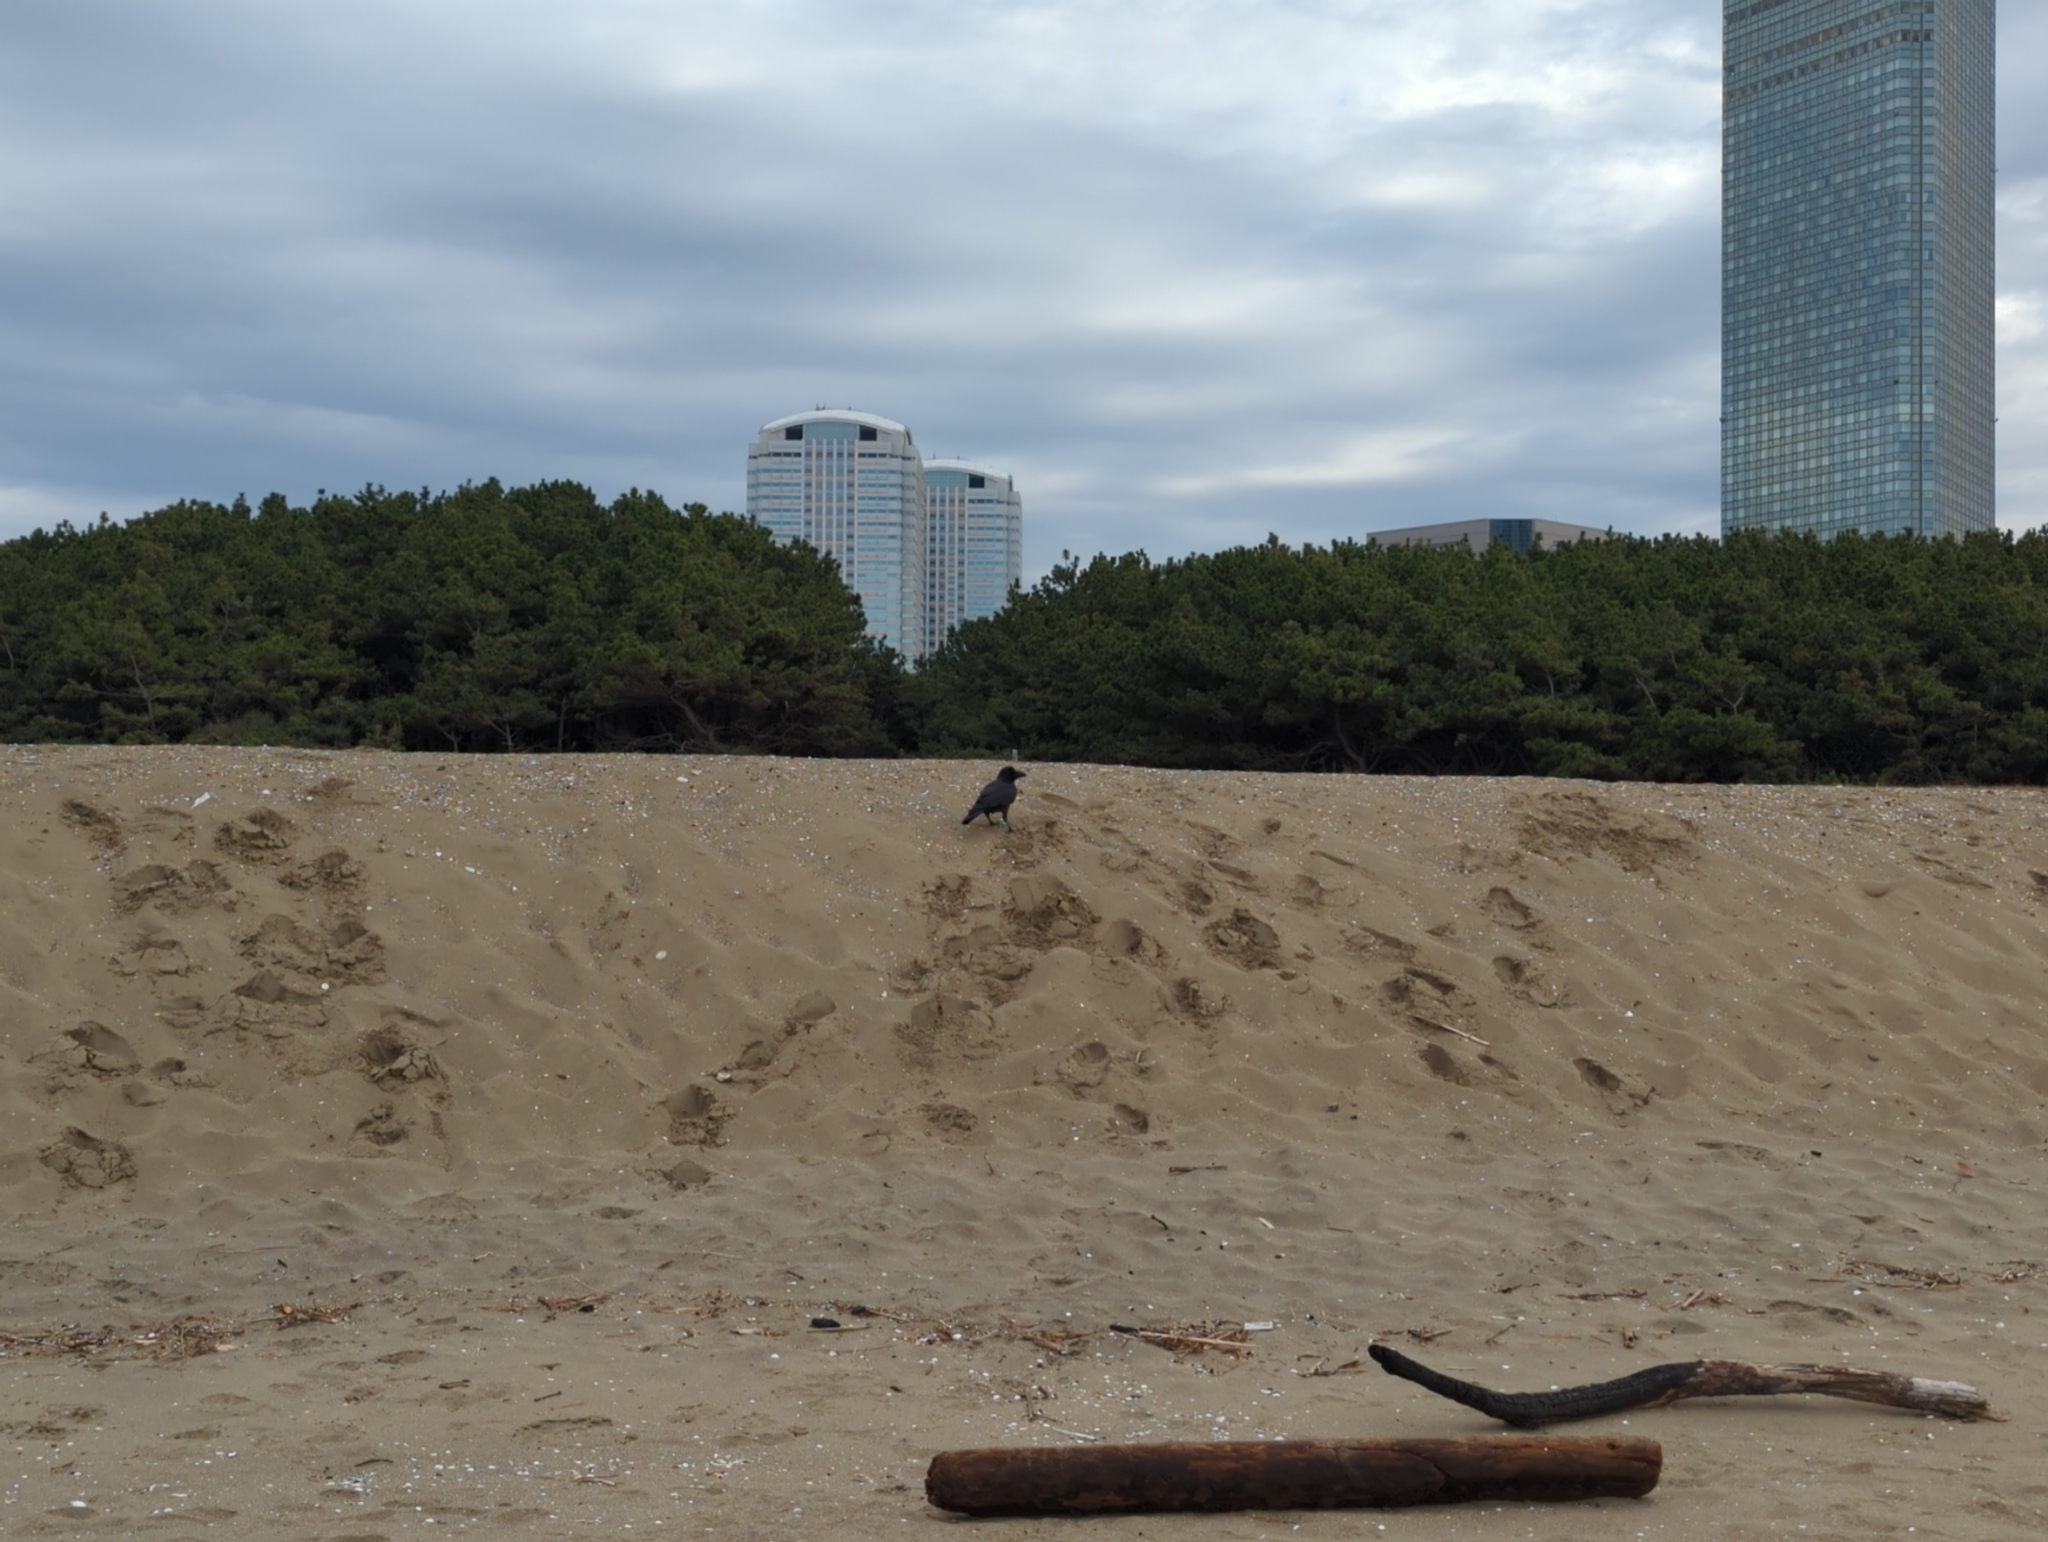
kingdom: Animalia
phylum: Chordata
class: Aves
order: Passeriformes
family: Corvidae
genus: Corvus
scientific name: Corvus macrorhynchos
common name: Large-billed crow
